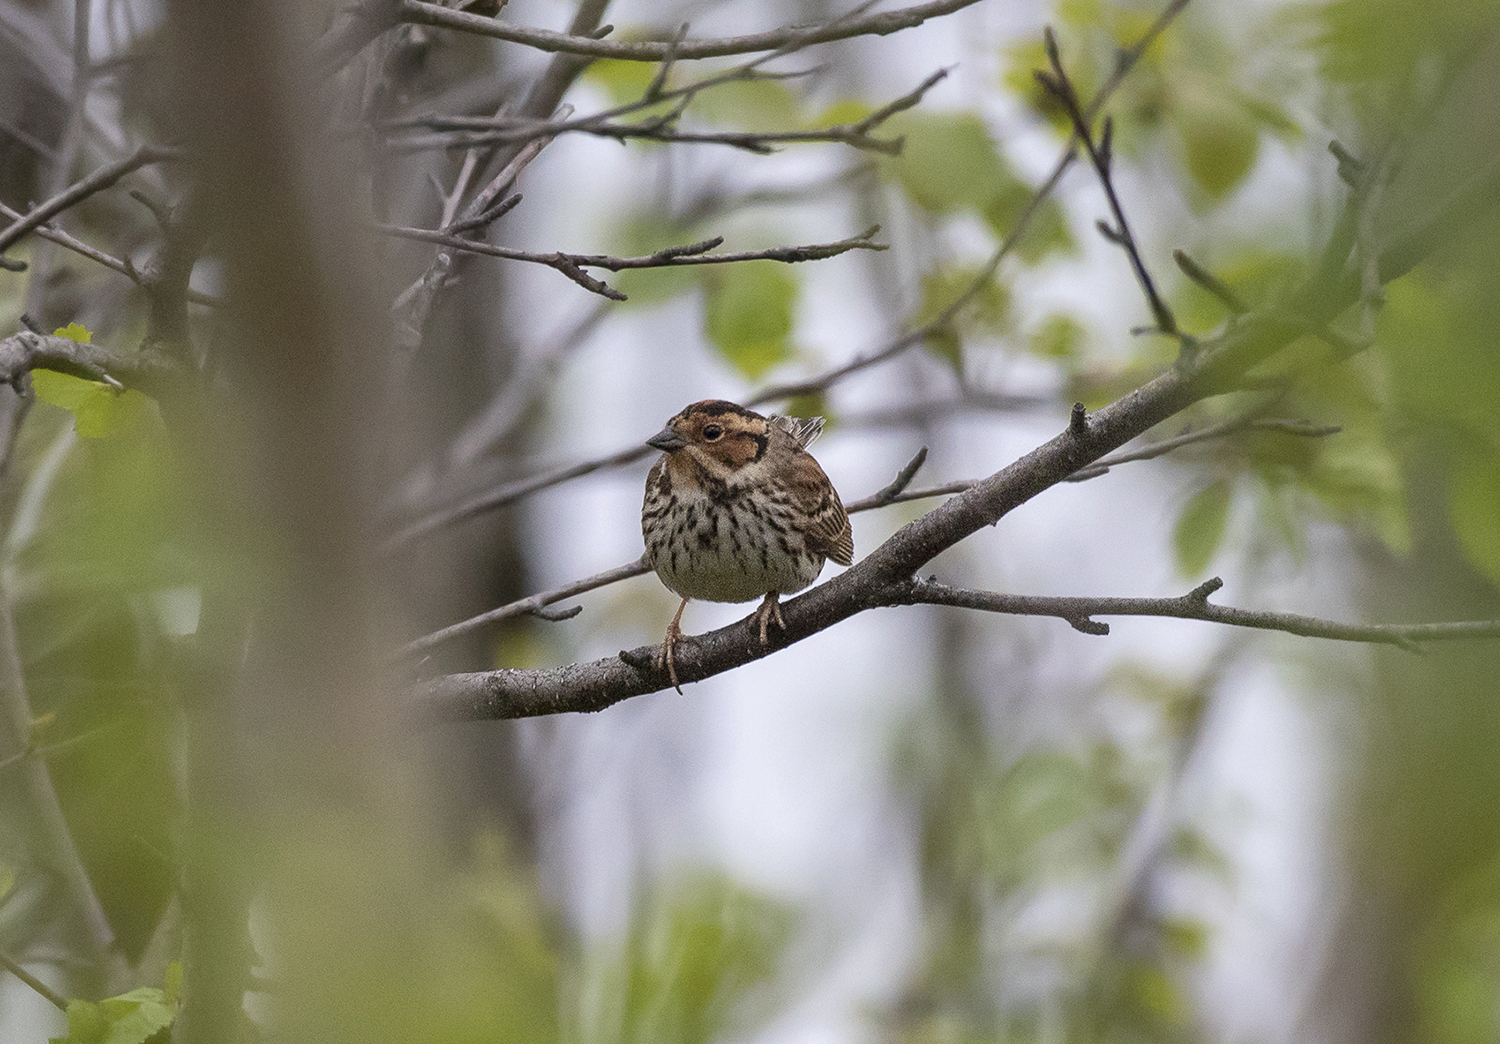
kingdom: Animalia
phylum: Chordata
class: Aves
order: Passeriformes
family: Emberizidae
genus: Emberiza
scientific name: Emberiza pusilla
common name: Little bunting
